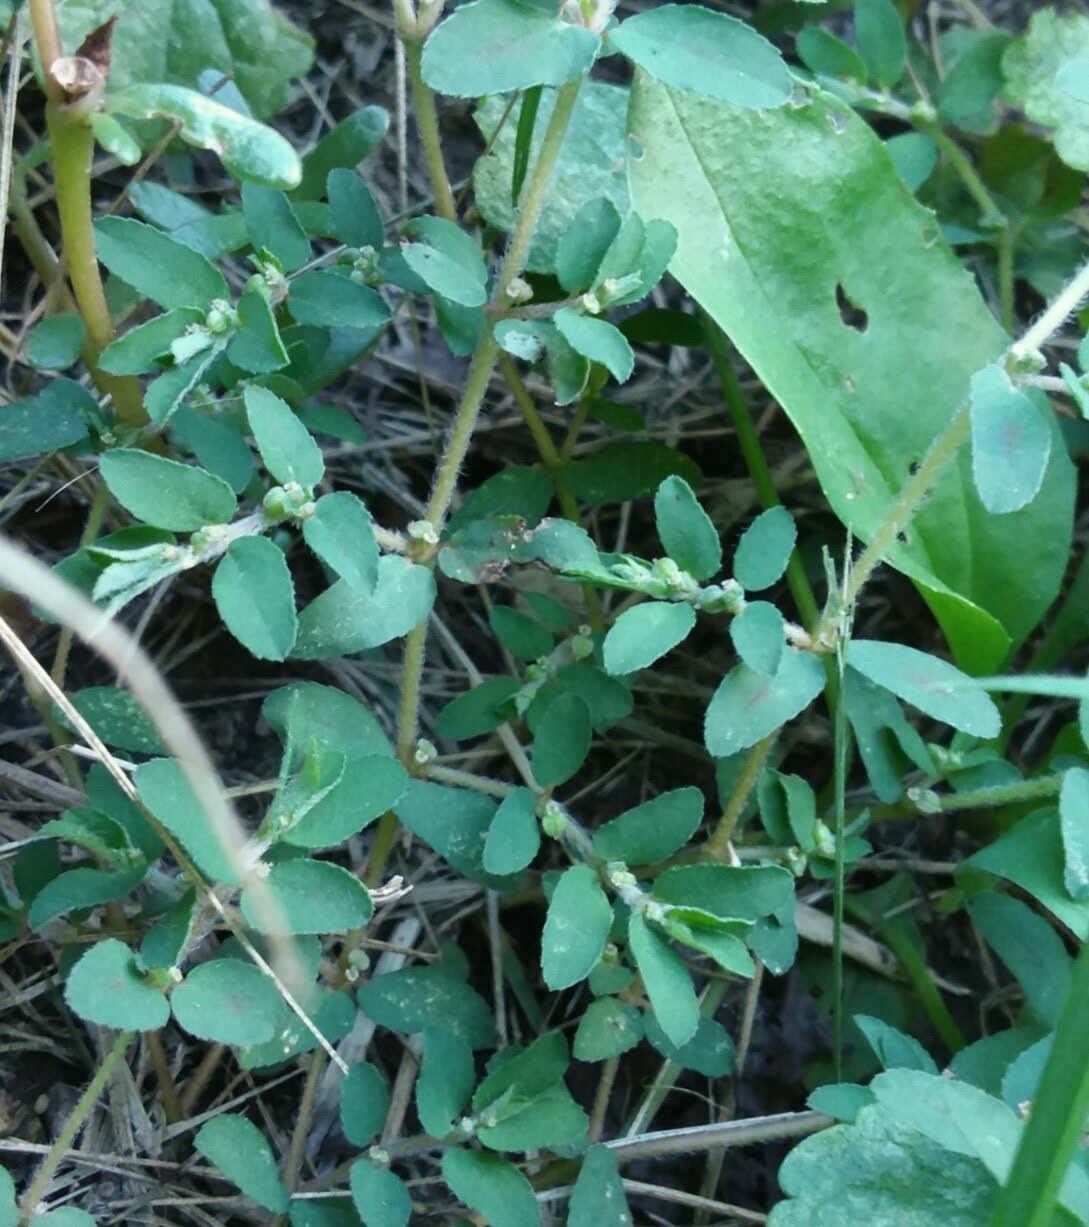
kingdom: Plantae
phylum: Tracheophyta
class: Magnoliopsida
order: Malpighiales
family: Euphorbiaceae
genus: Euphorbia
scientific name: Euphorbia maculata
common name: Spotted spurge
